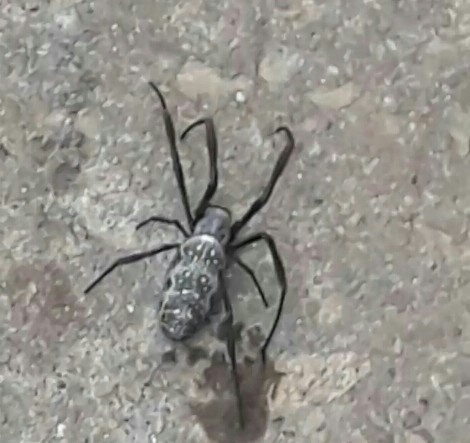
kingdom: Animalia
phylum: Arthropoda
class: Arachnida
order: Araneae
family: Araneidae
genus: Trichonephila
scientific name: Trichonephila sexpunctata
